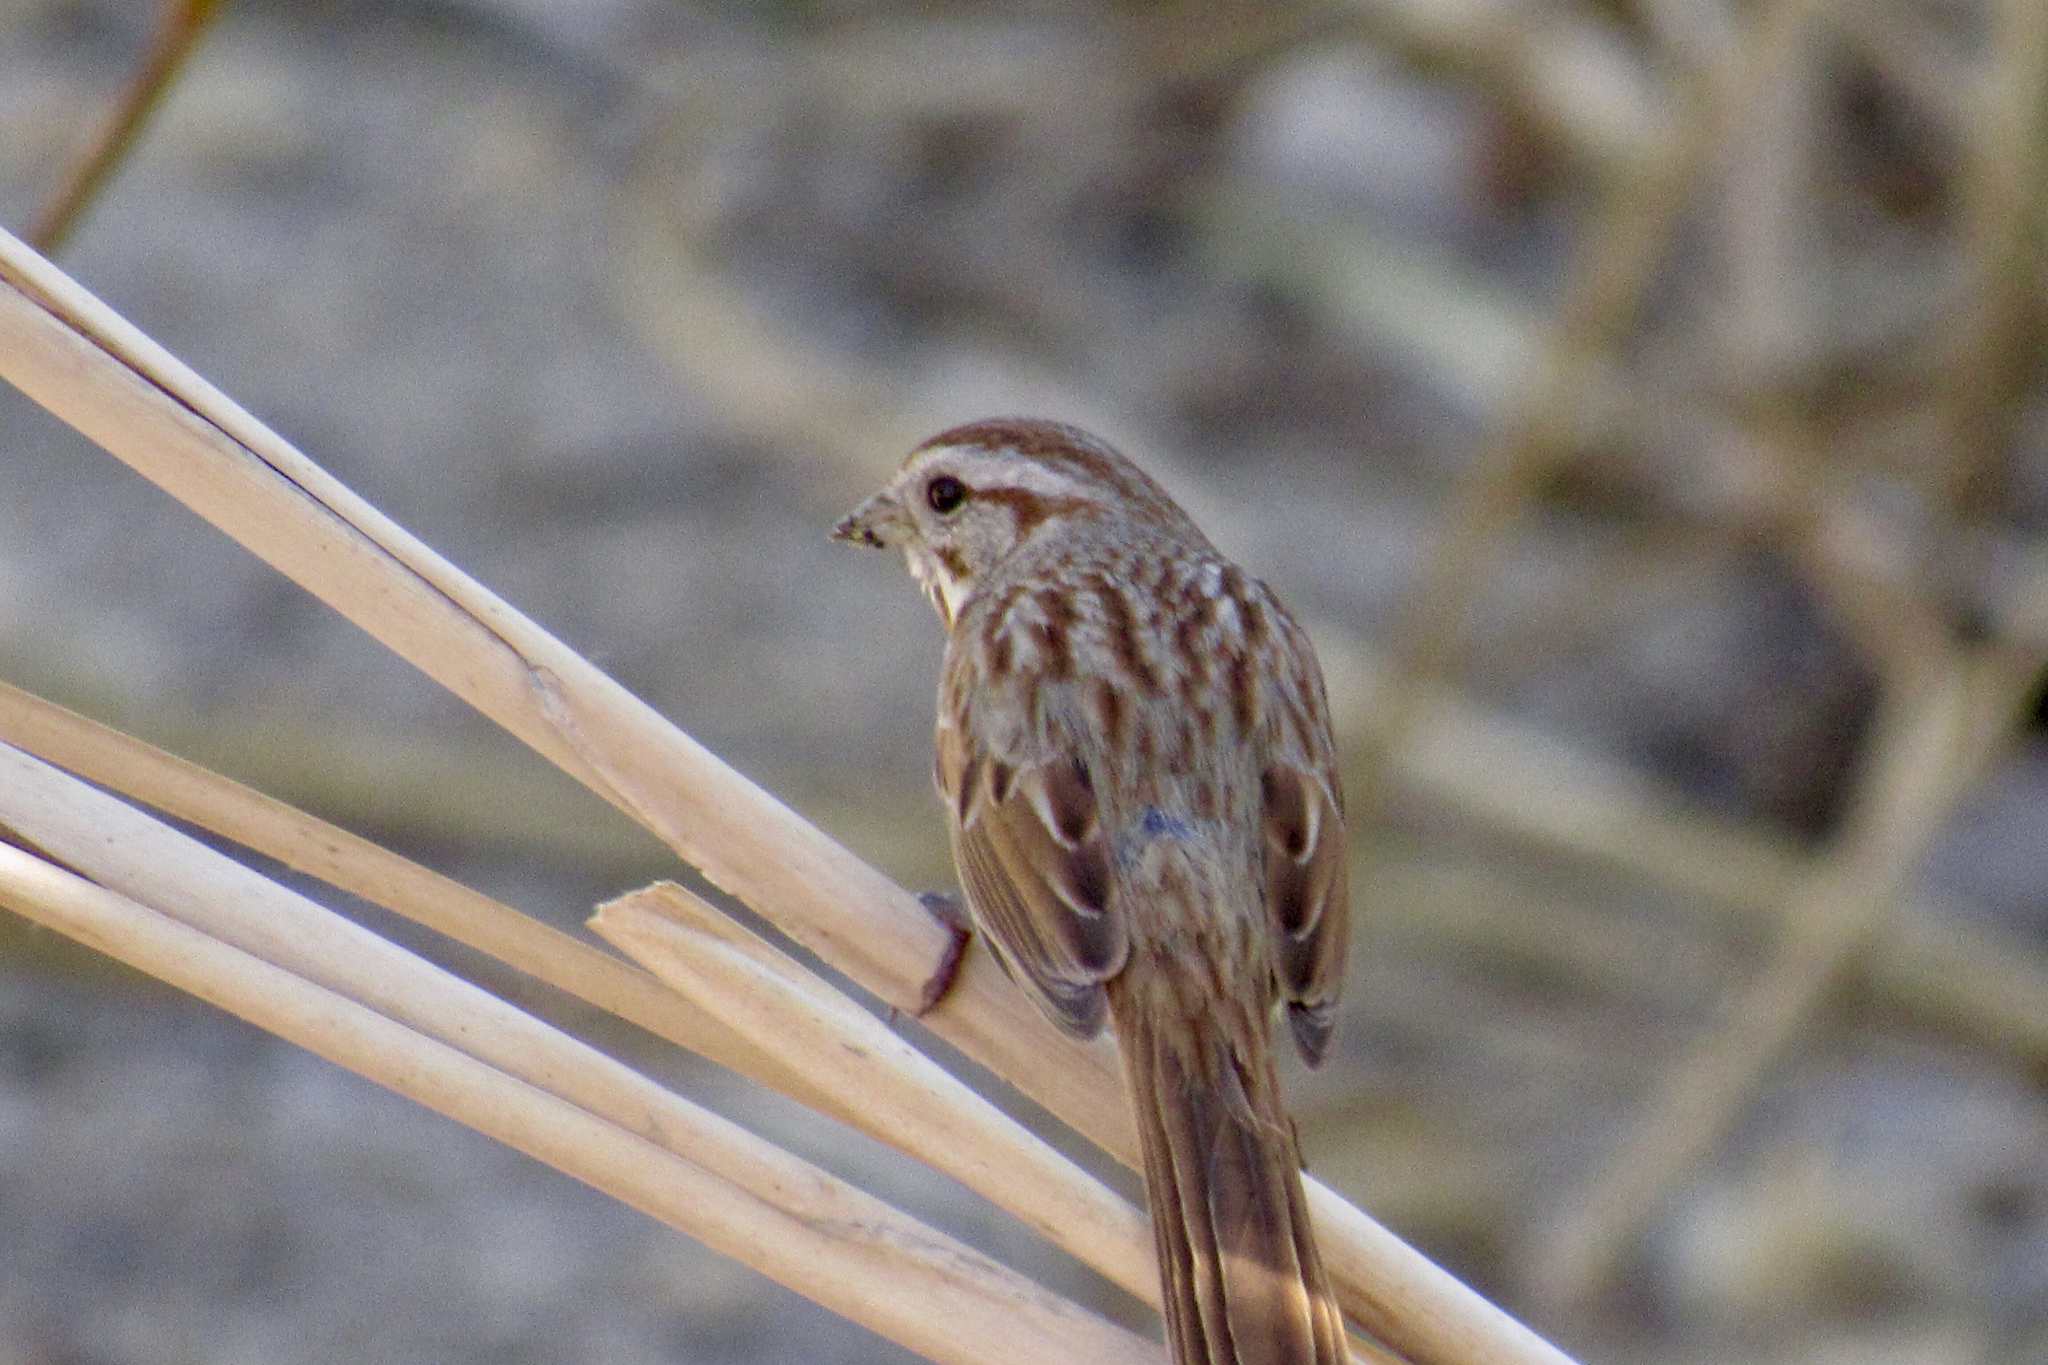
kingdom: Animalia
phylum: Chordata
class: Aves
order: Passeriformes
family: Passerellidae
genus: Melospiza
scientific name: Melospiza melodia
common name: Song sparrow
